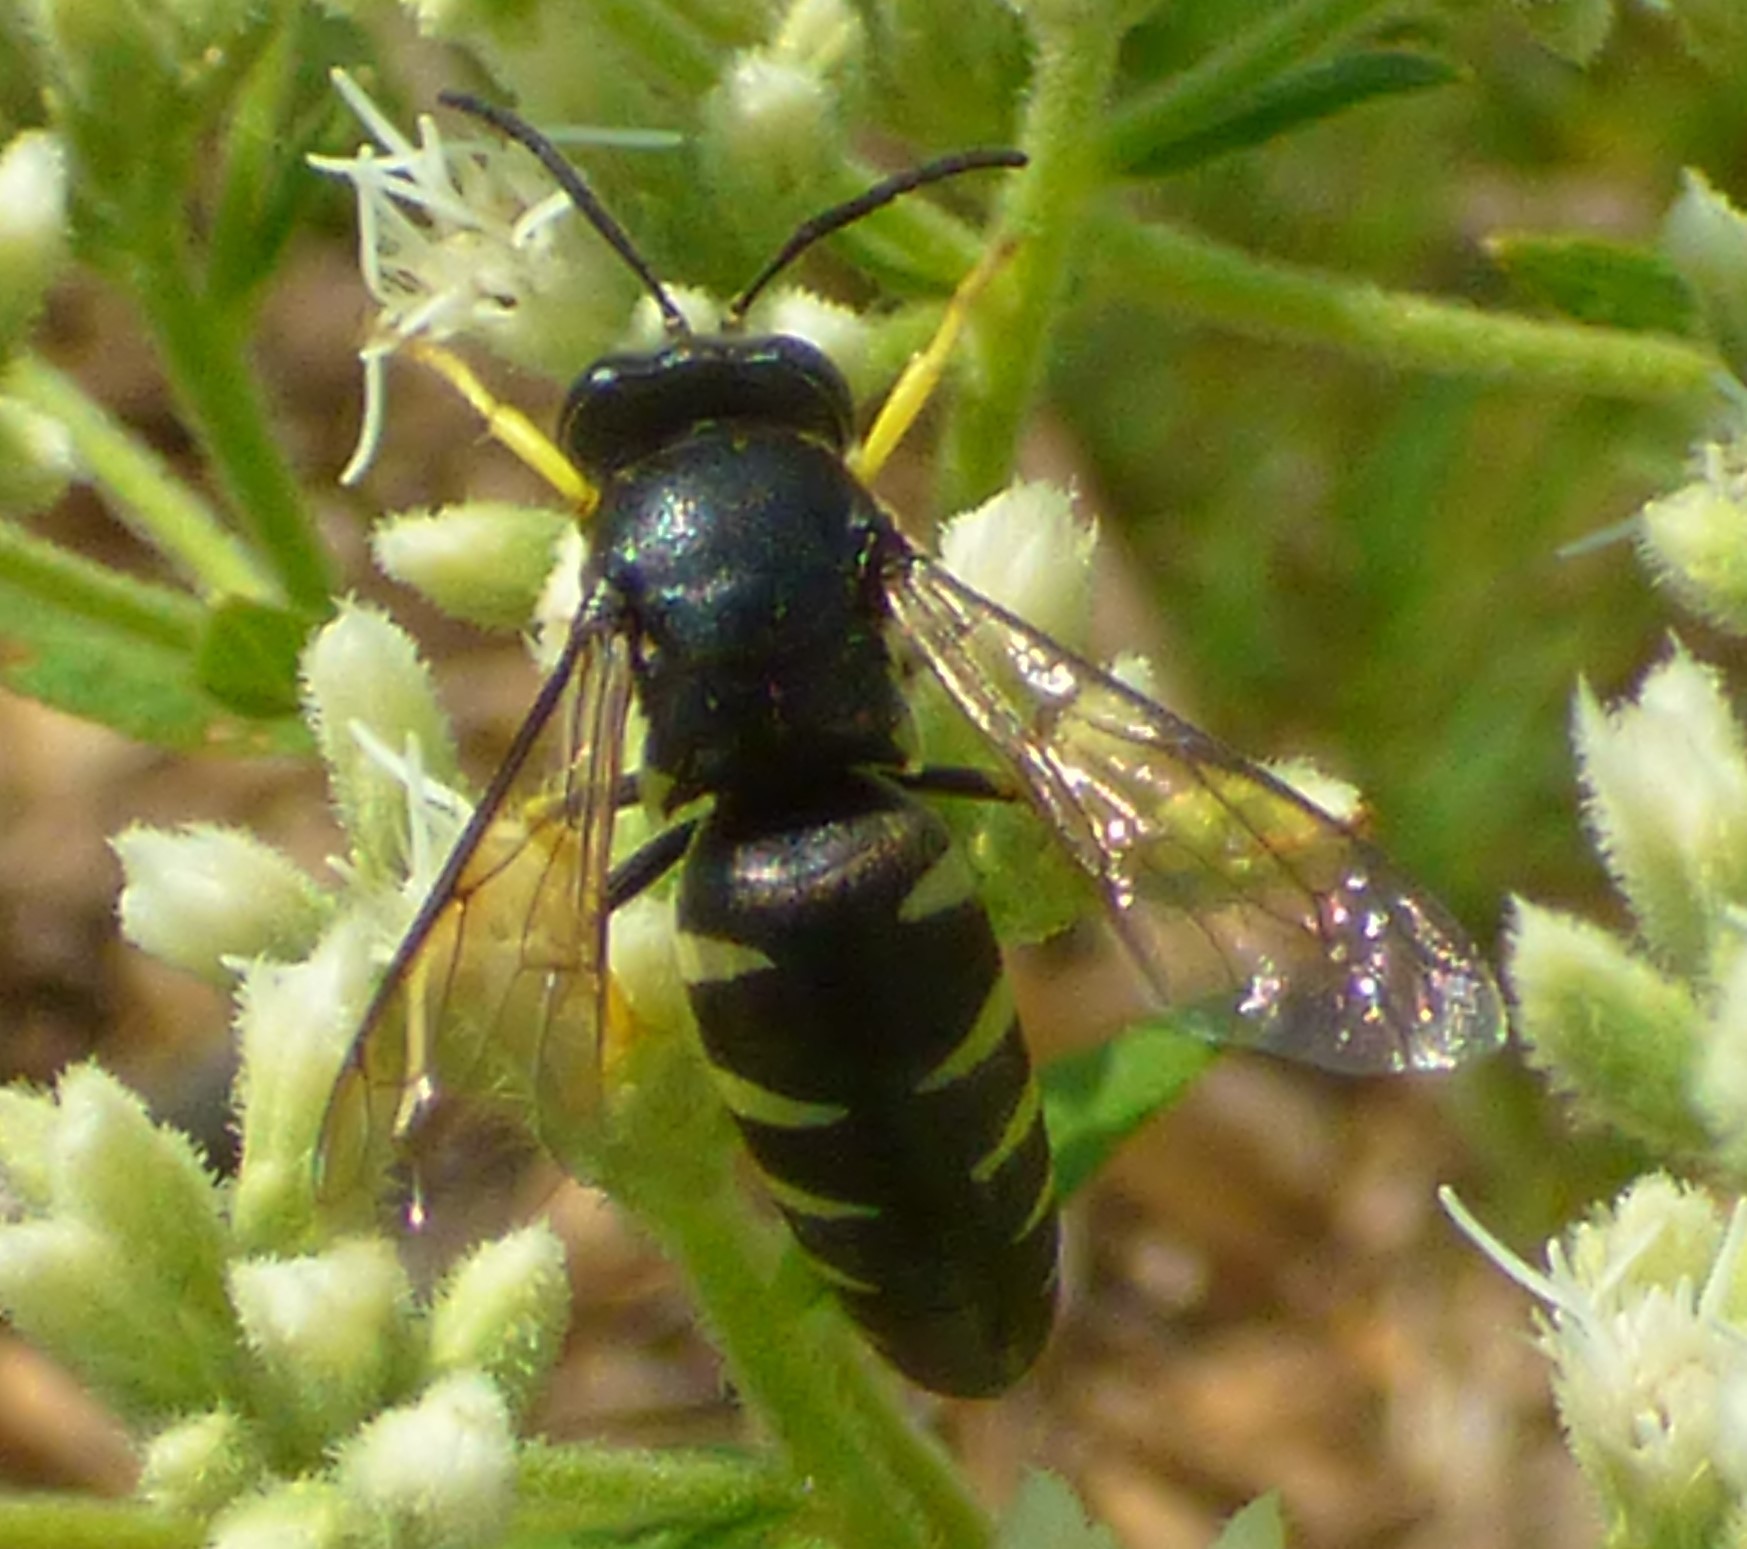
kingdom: Animalia
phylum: Arthropoda
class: Insecta
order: Hymenoptera
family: Crabronidae
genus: Bicyrtes
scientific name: Bicyrtes quadrifasciatus
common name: Four-banded stink bug hunter wasp
